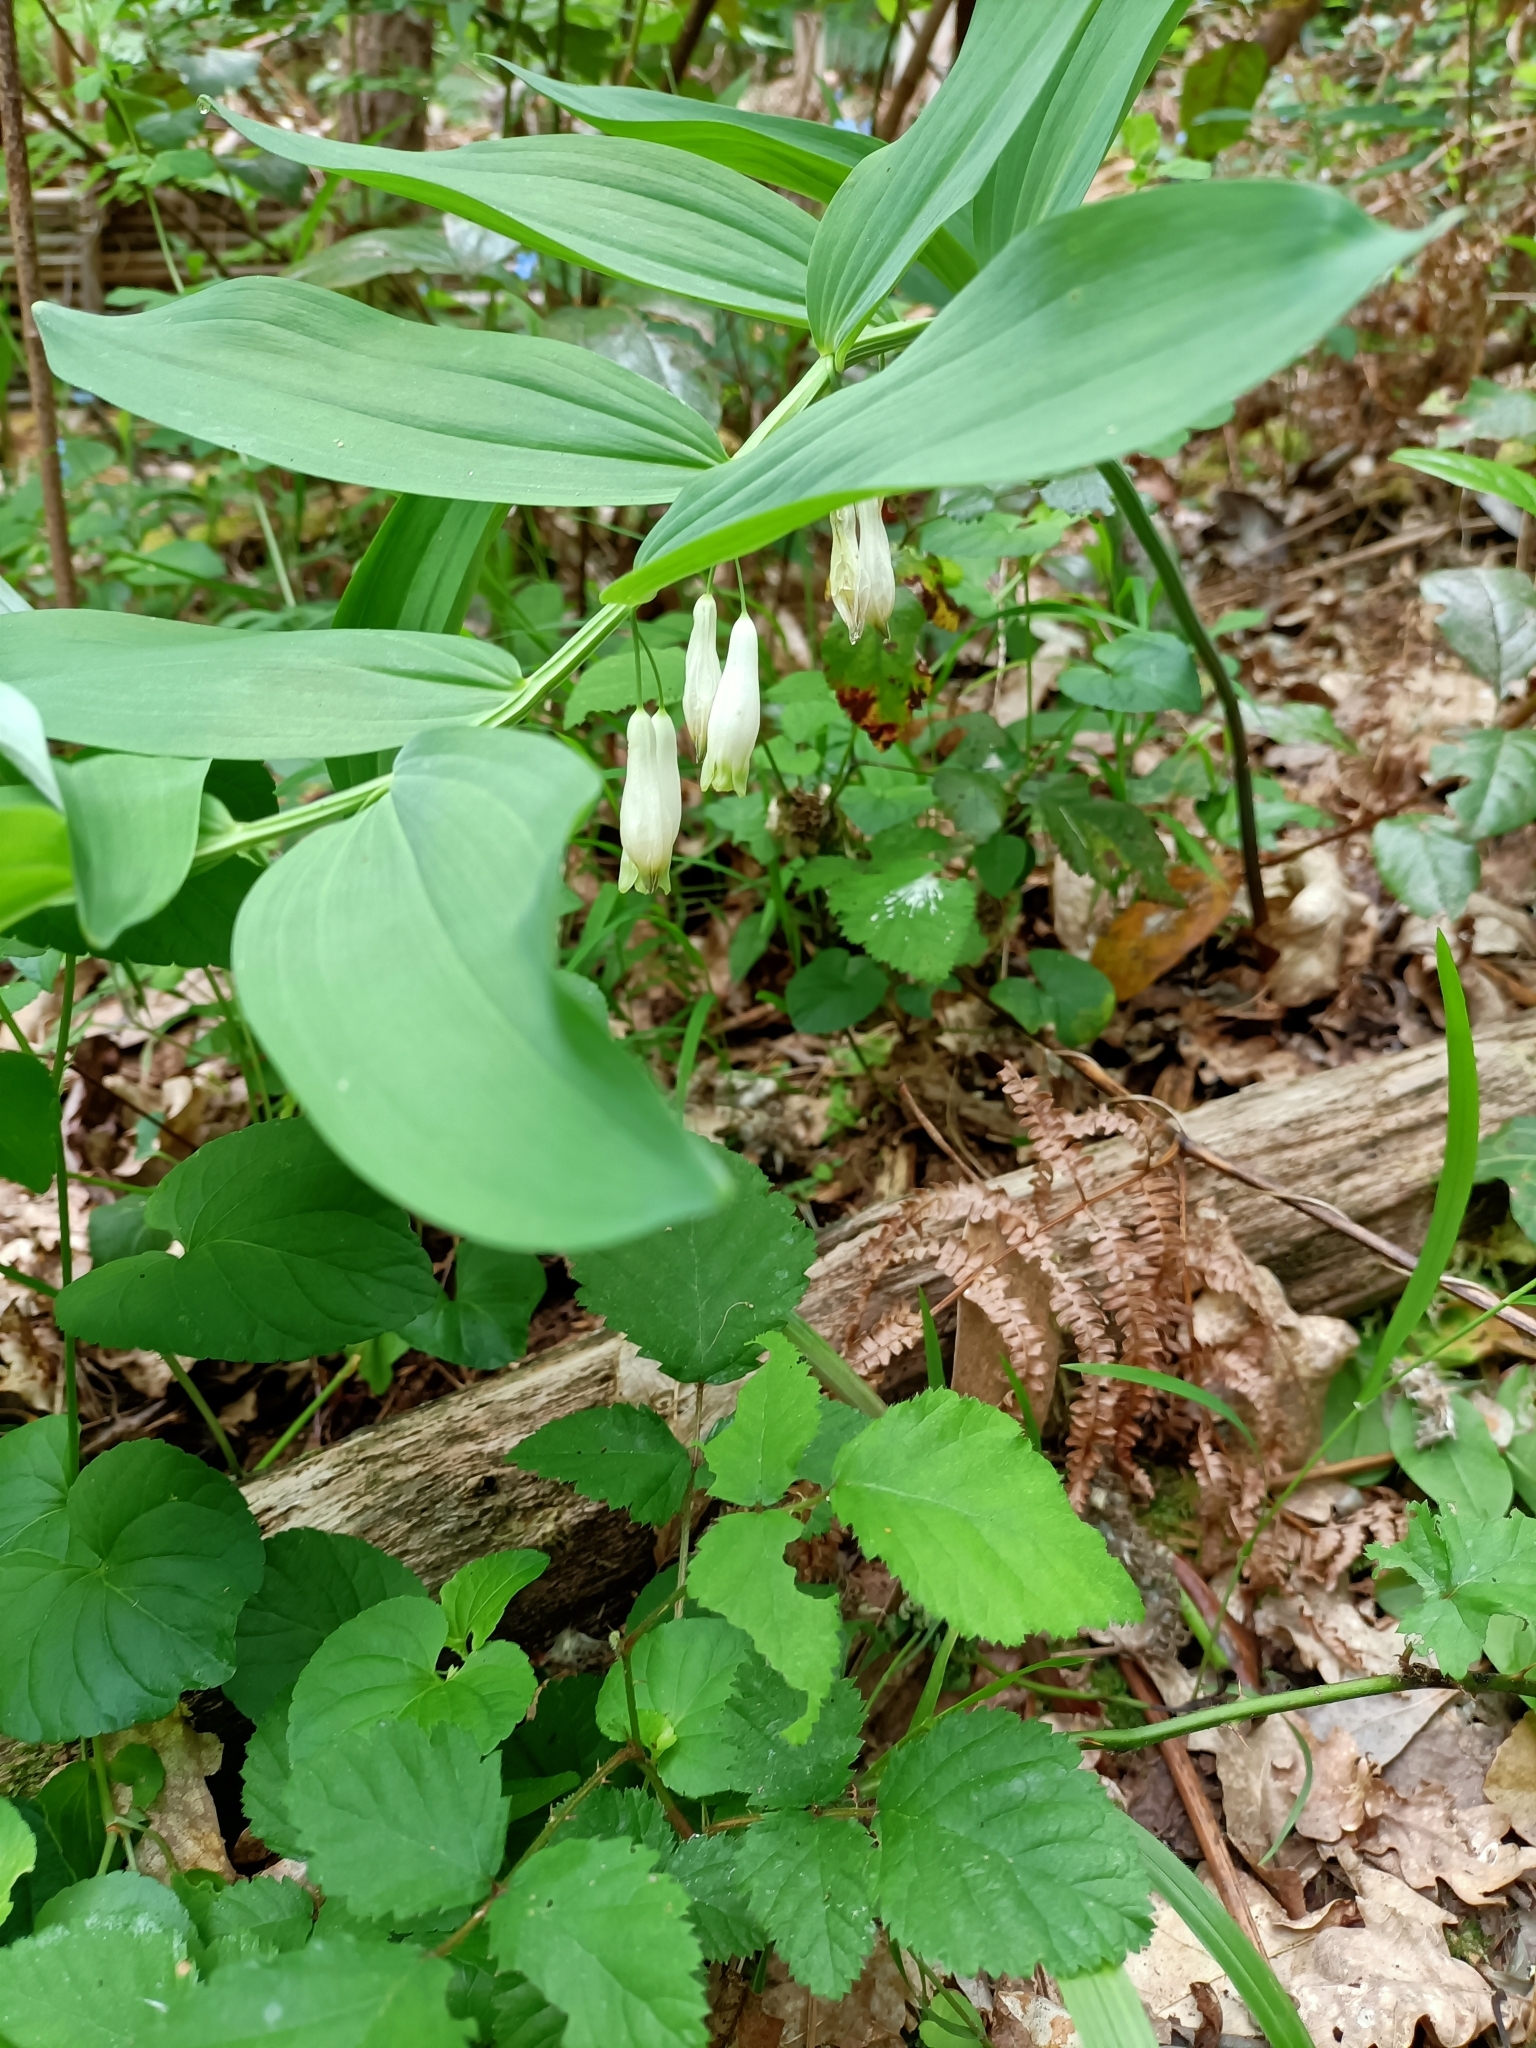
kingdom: Plantae
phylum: Tracheophyta
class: Liliopsida
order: Asparagales
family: Asparagaceae
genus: Polygonatum
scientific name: Polygonatum odoratum
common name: Angular solomon's-seal
